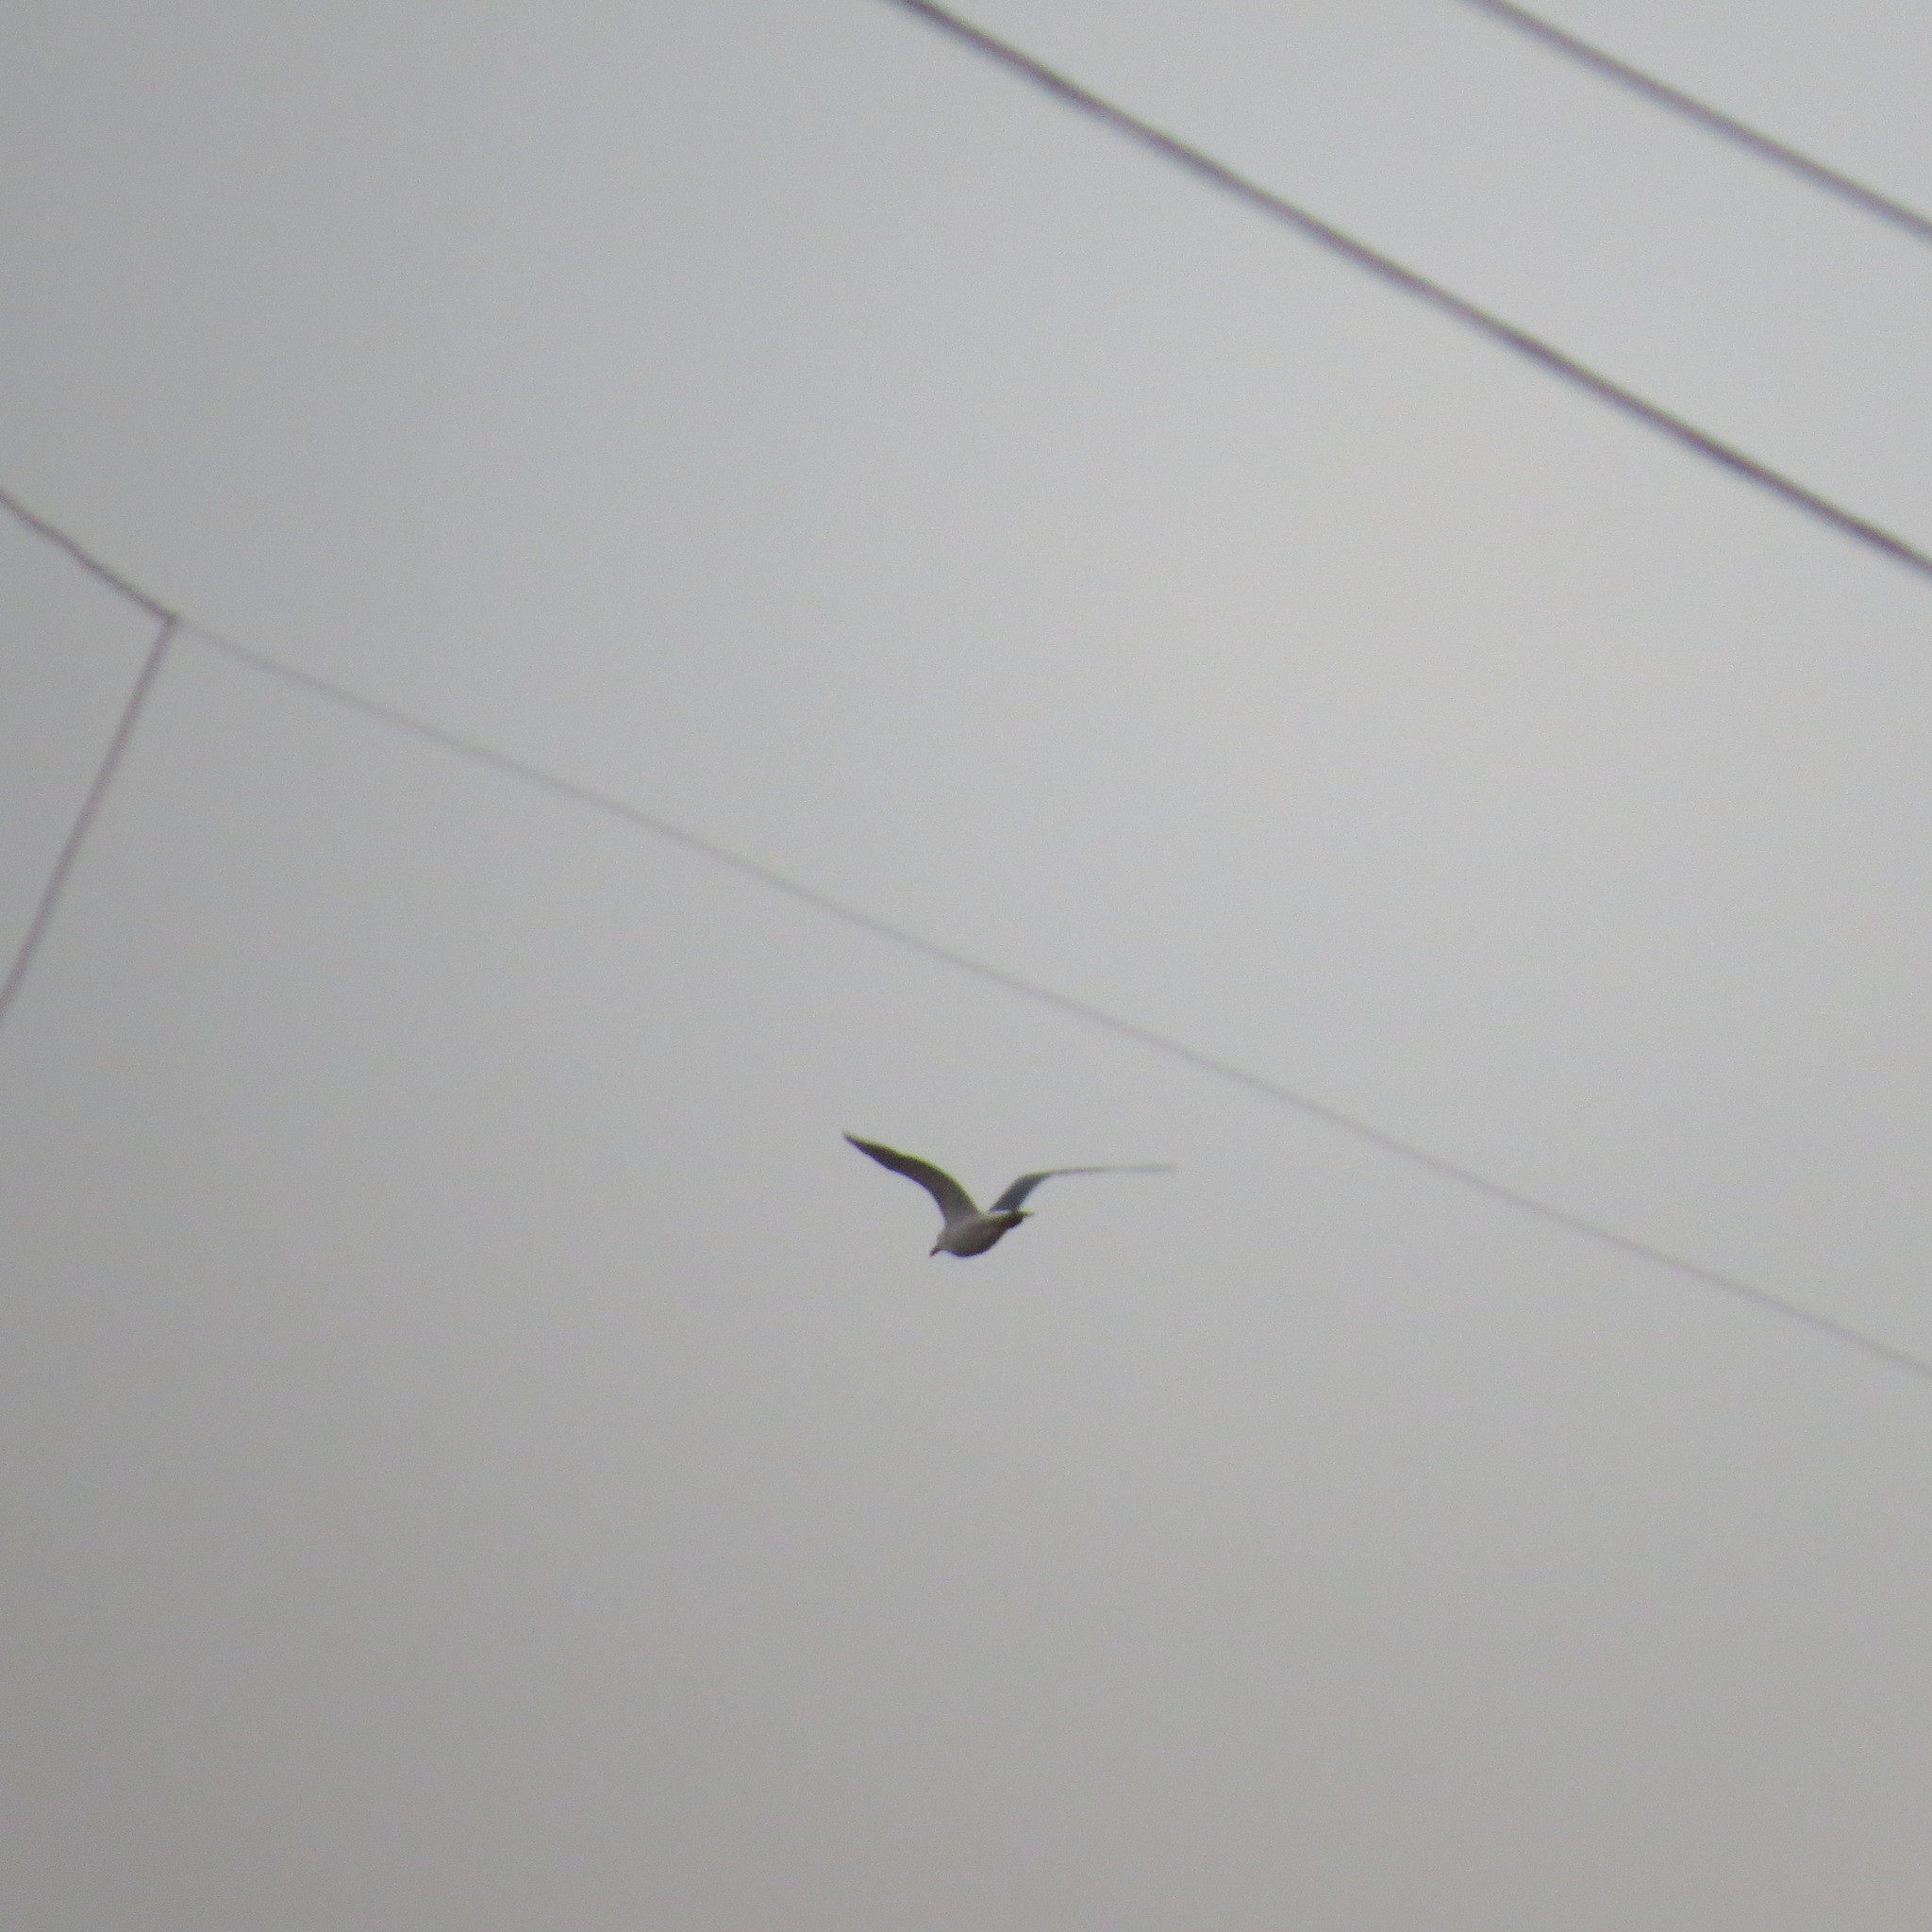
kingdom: Animalia
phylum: Chordata
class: Aves
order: Charadriiformes
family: Laridae
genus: Larus
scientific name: Larus fuscus
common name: Lesser black-backed gull
